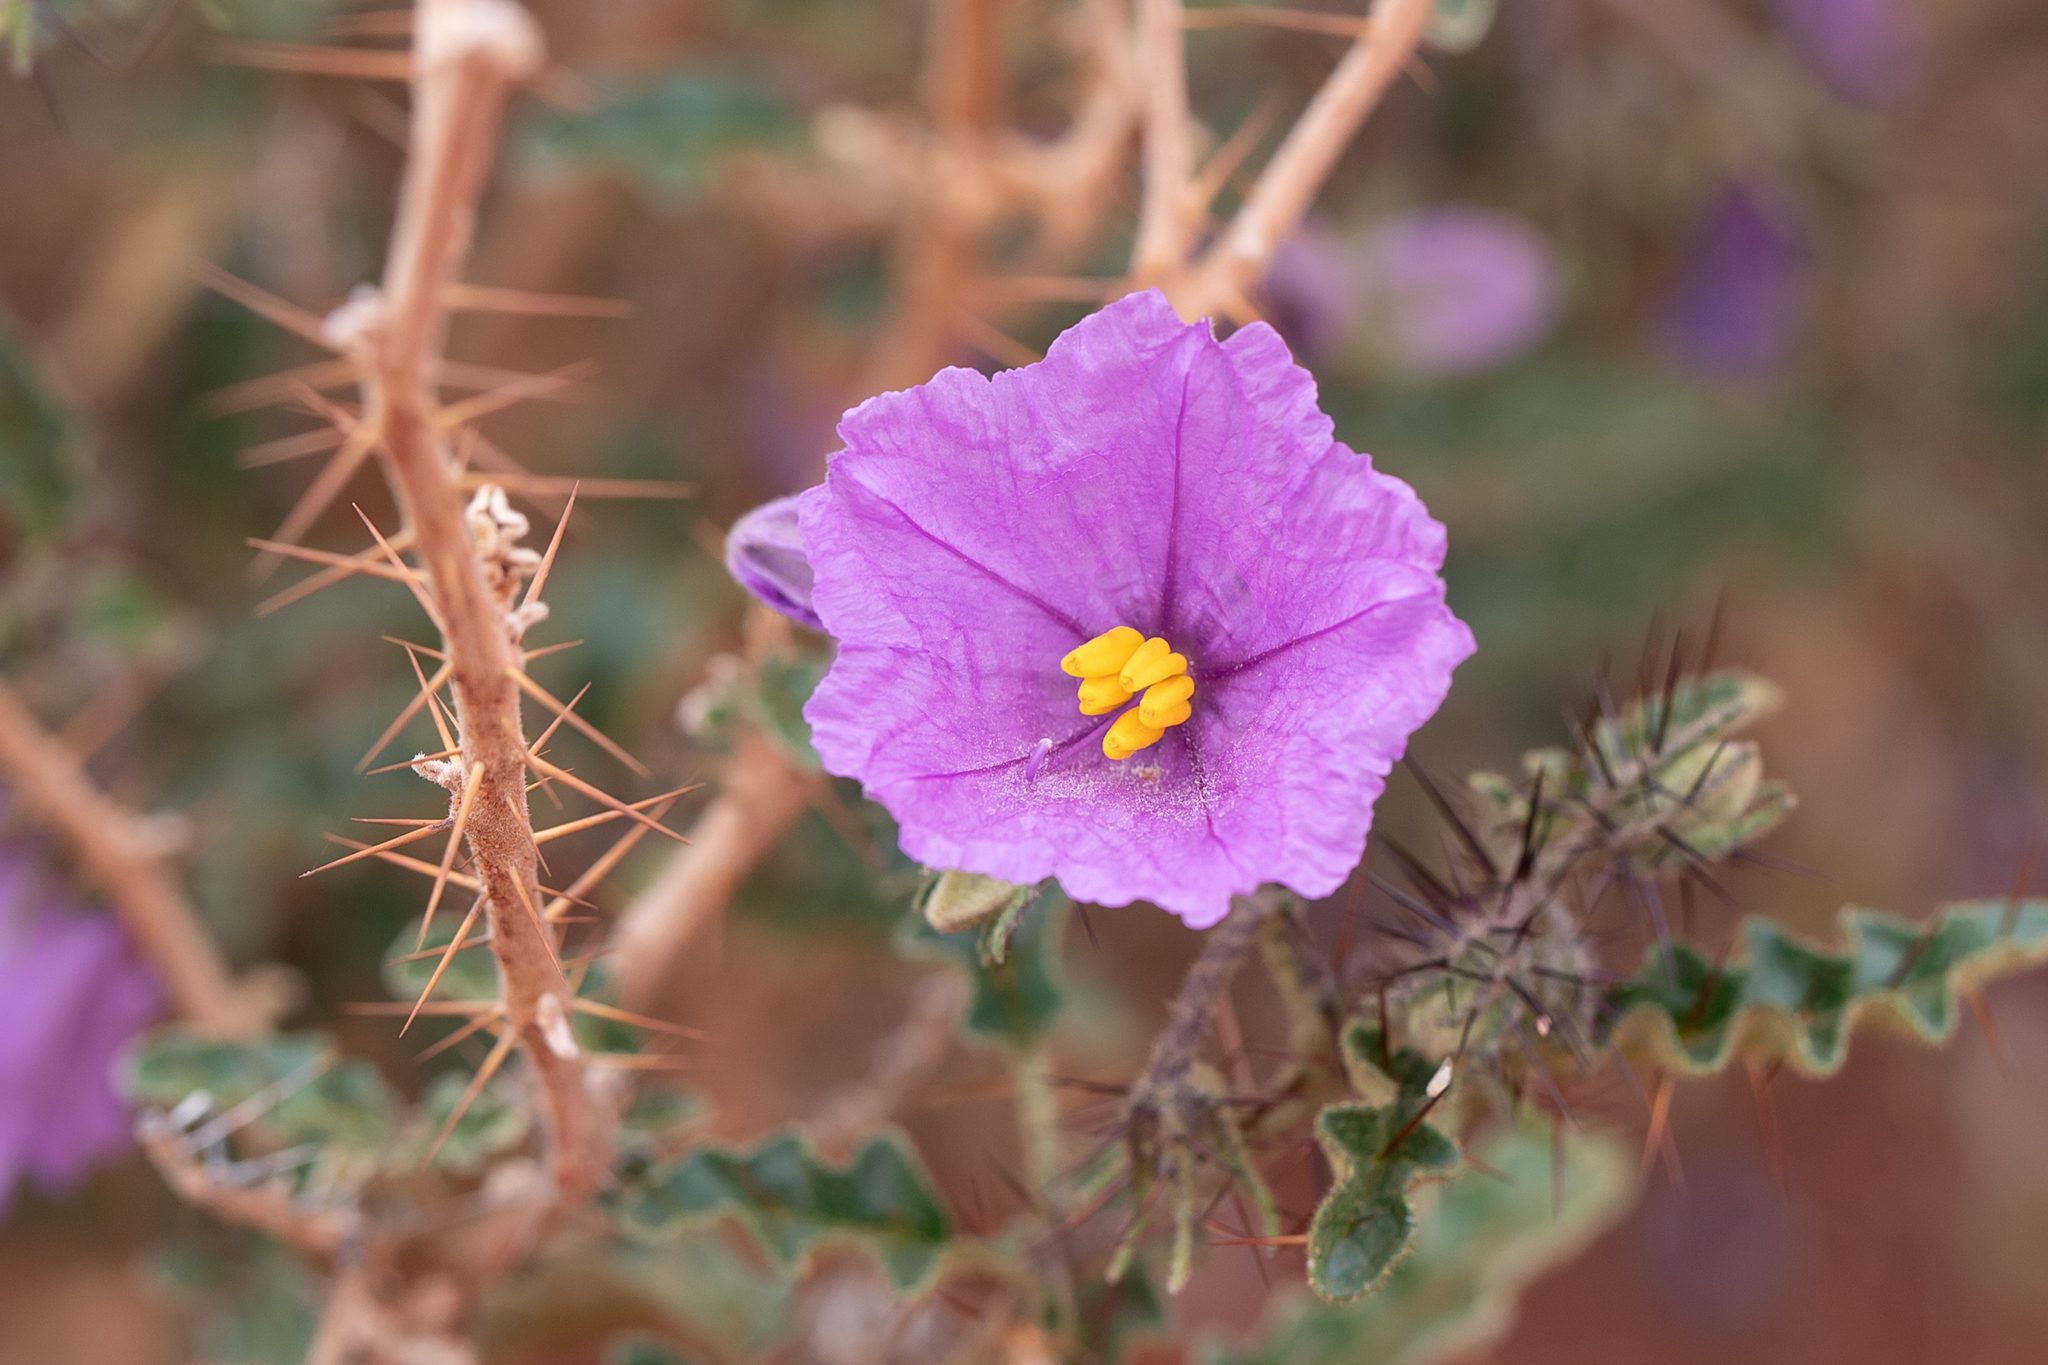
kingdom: Plantae
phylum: Tracheophyta
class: Magnoliopsida
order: Solanales
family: Solanaceae
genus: Solanum
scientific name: Solanum petrophilum
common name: Rock nightshade
